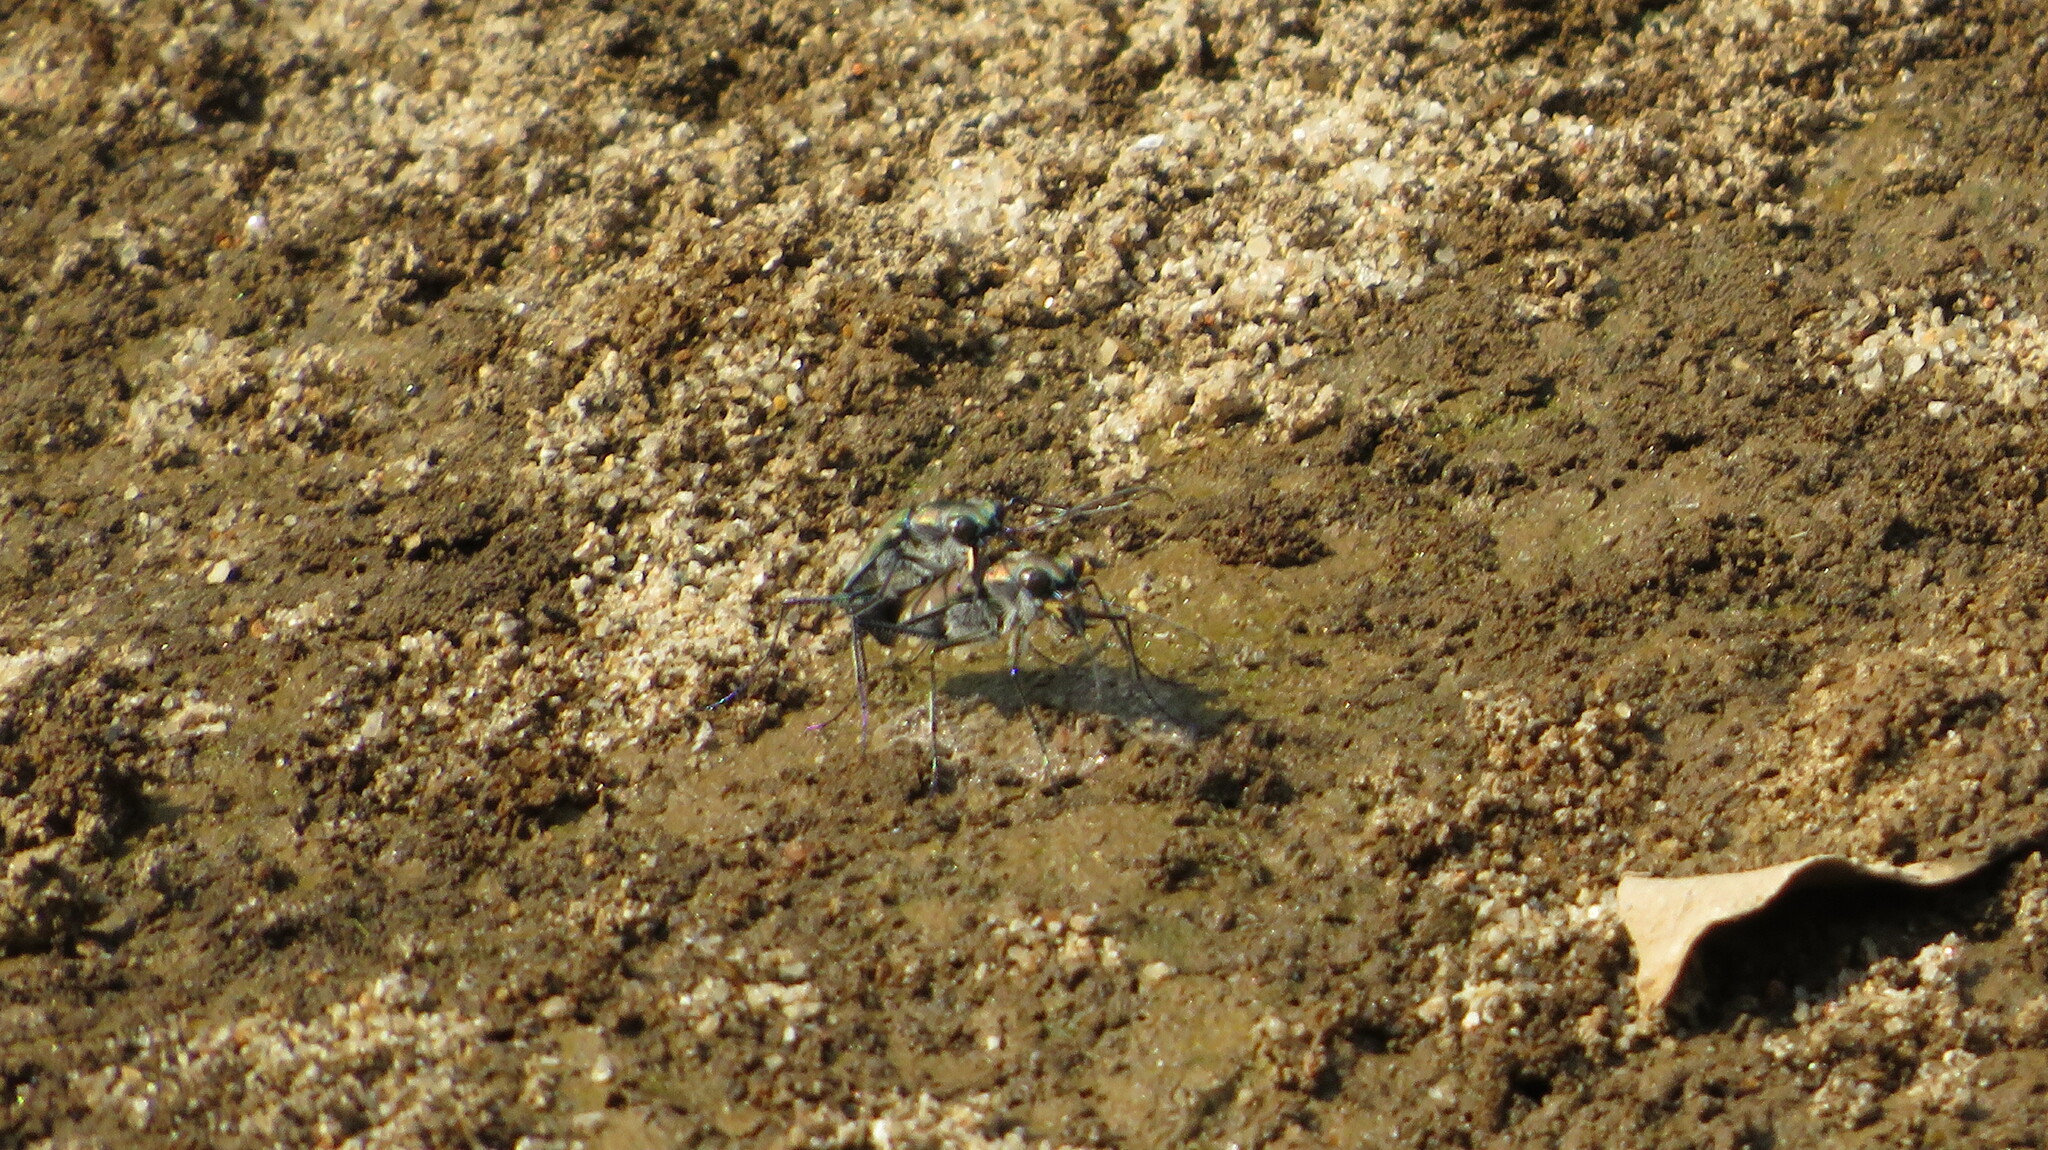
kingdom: Animalia
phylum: Arthropoda
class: Insecta
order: Coleoptera
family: Carabidae
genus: Cicindela
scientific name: Cicindela funerea
